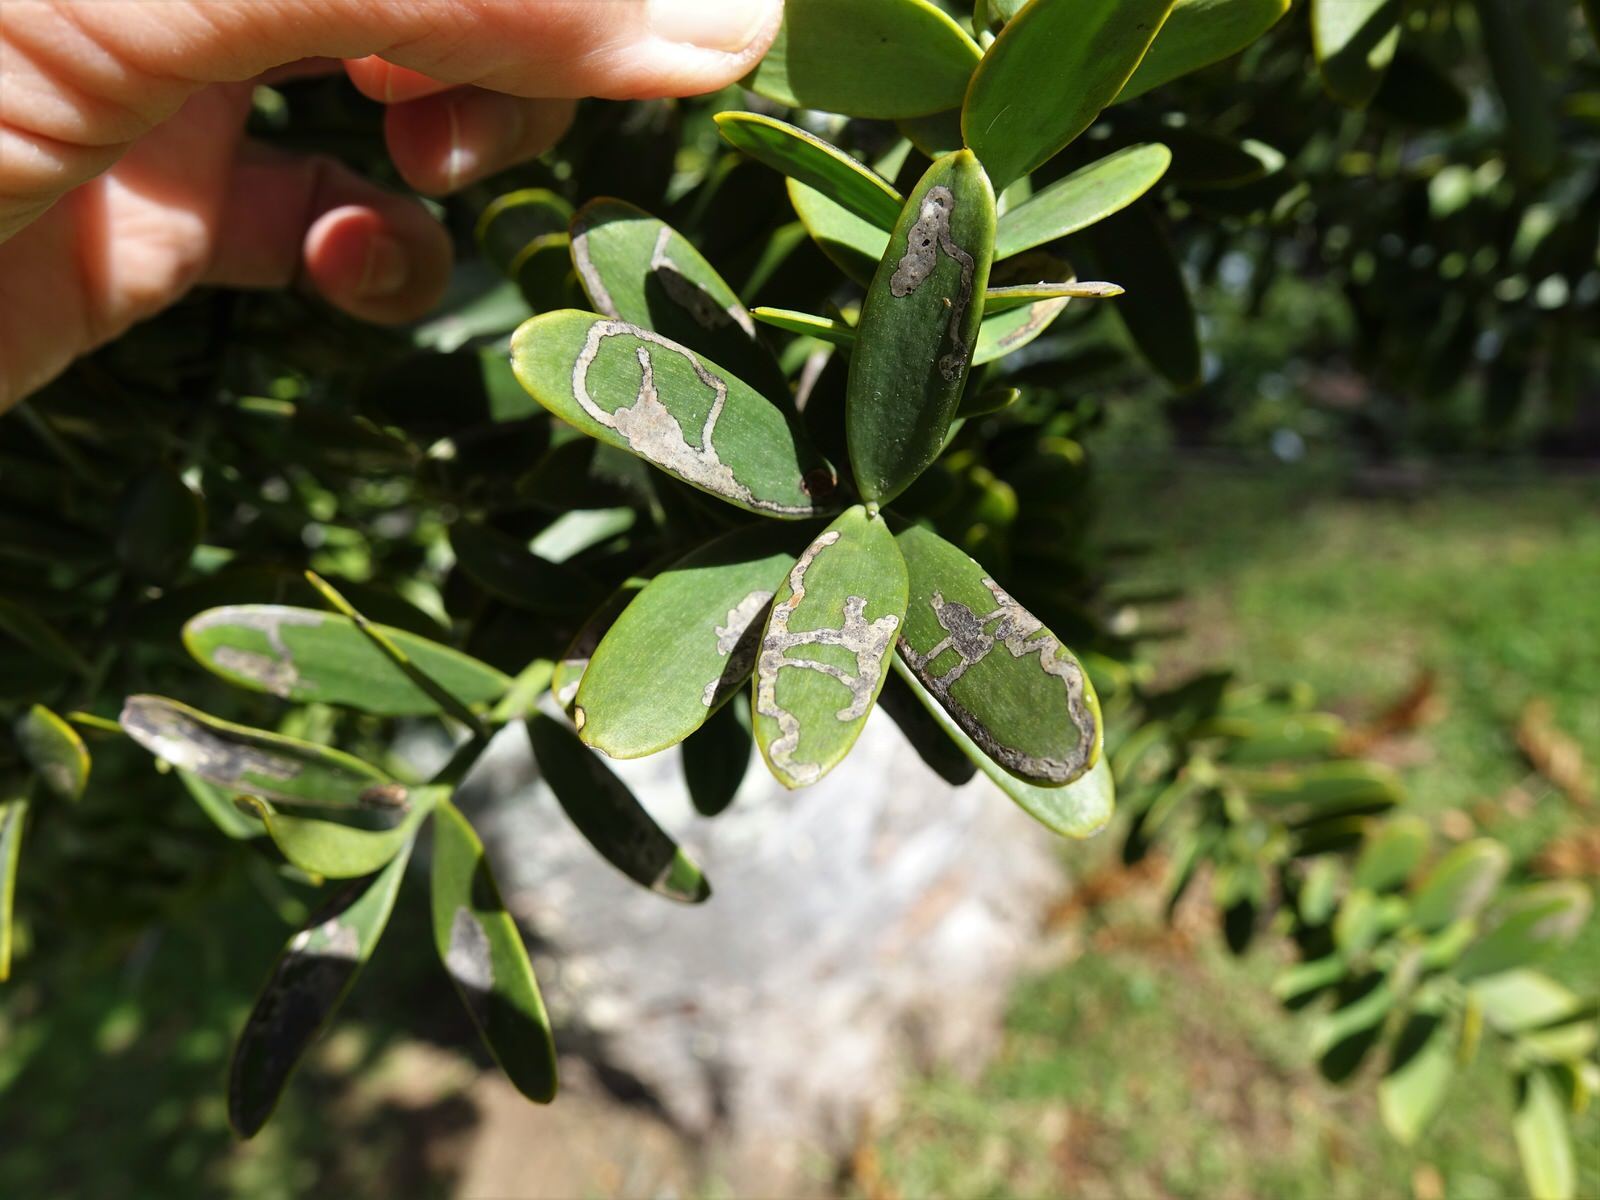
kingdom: Animalia
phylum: Arthropoda
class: Insecta
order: Lepidoptera
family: Gracillariidae
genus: Acrocercops
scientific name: Acrocercops leucotoma
